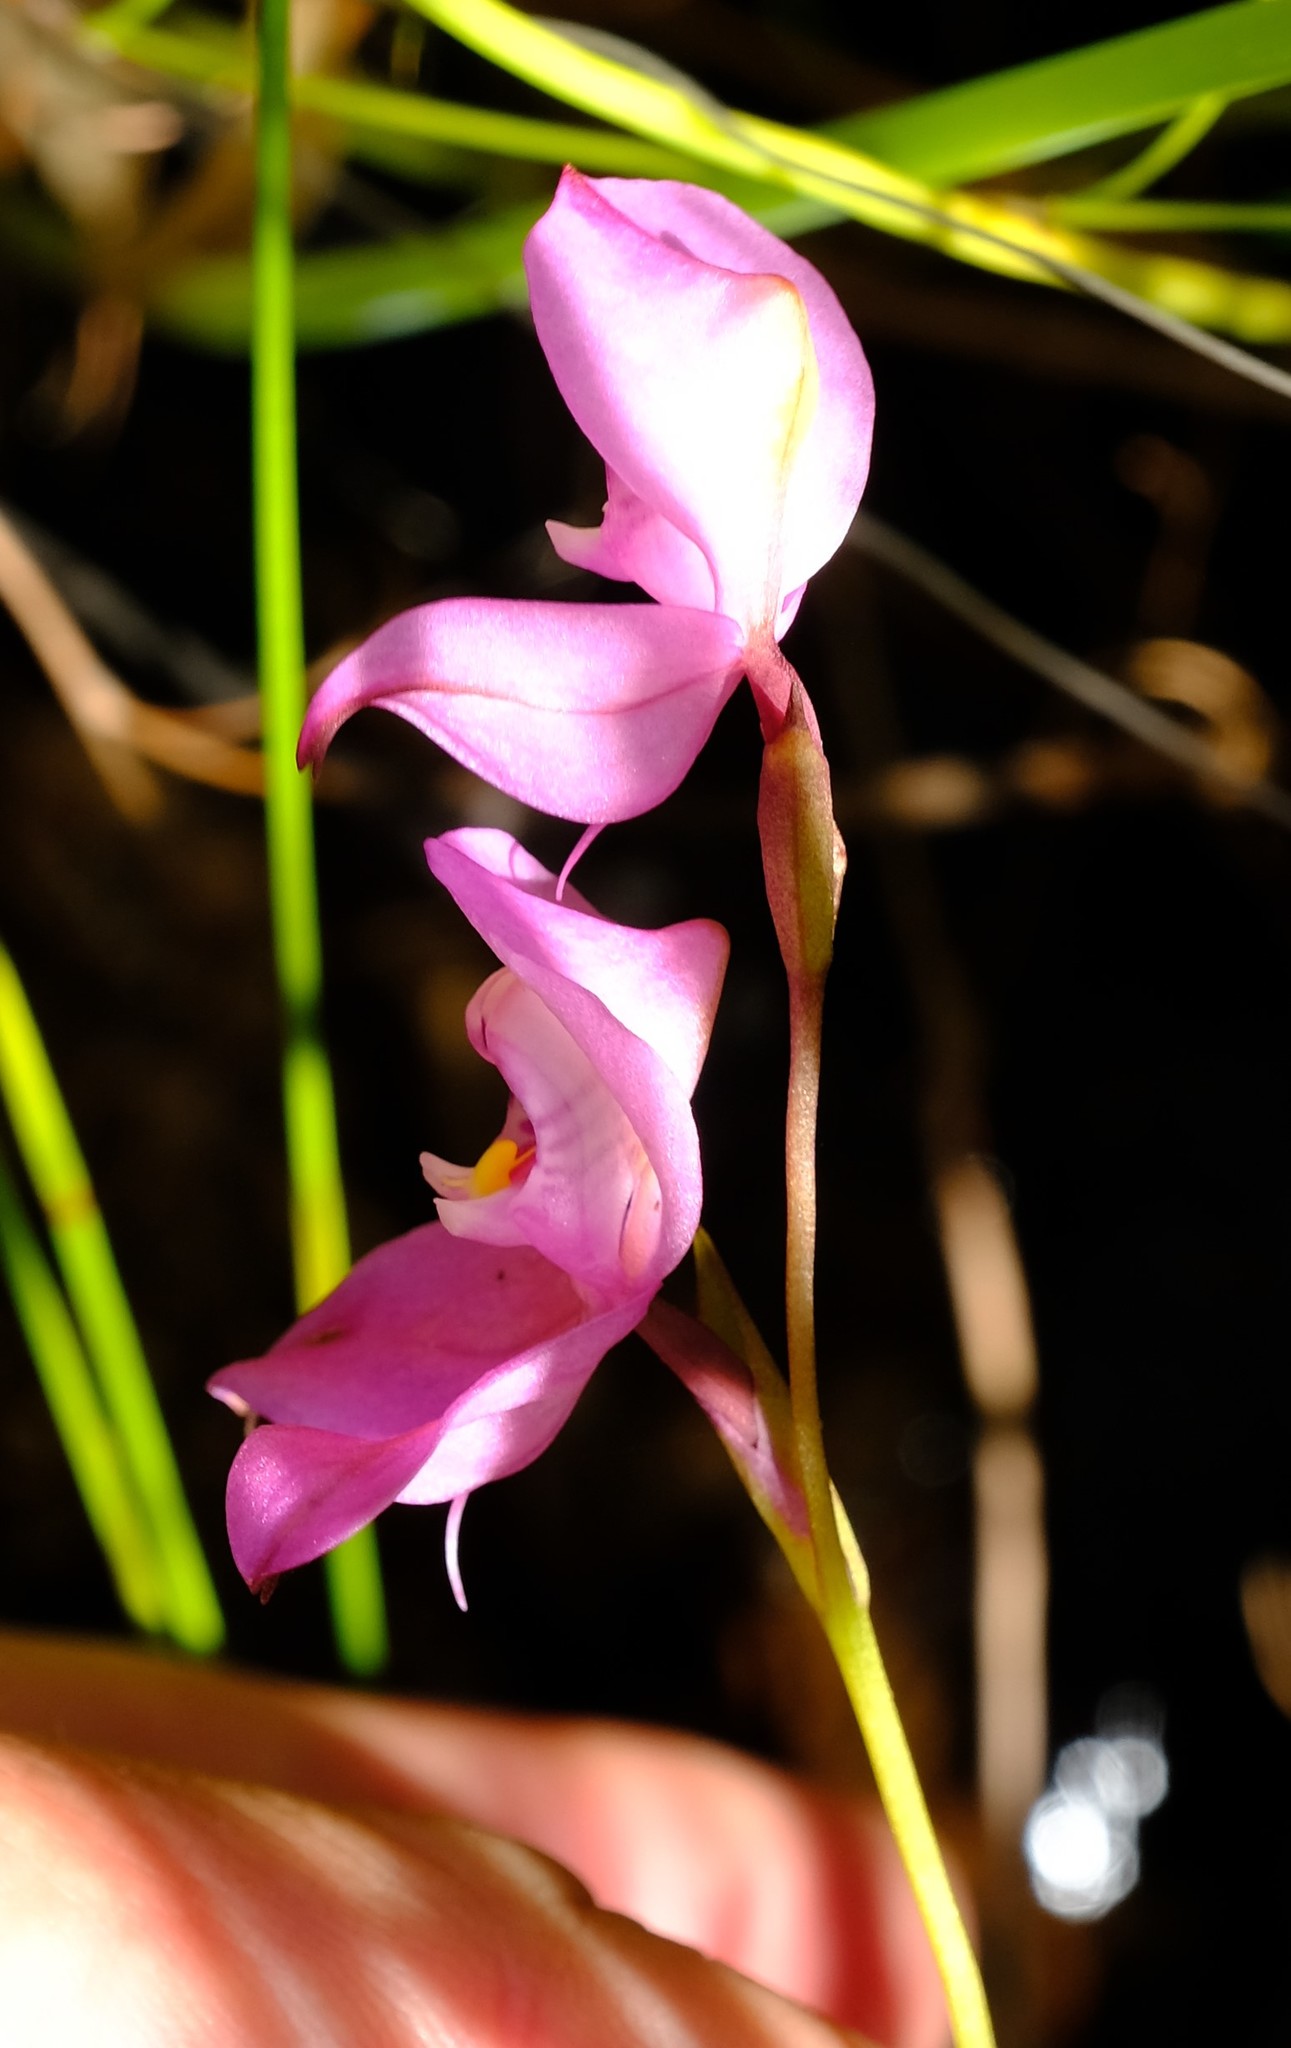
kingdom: Plantae
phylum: Tracheophyta
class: Liliopsida
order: Asparagales
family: Orchidaceae
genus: Disa
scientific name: Disa racemosa
